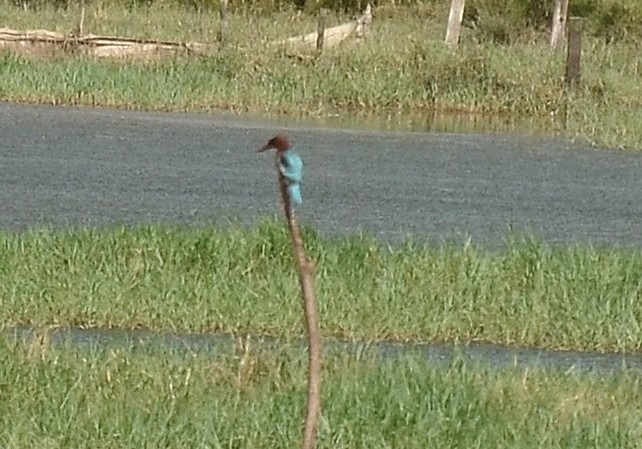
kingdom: Animalia
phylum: Chordata
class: Aves
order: Coraciiformes
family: Alcedinidae
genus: Halcyon
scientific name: Halcyon smyrnensis
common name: White-throated kingfisher
